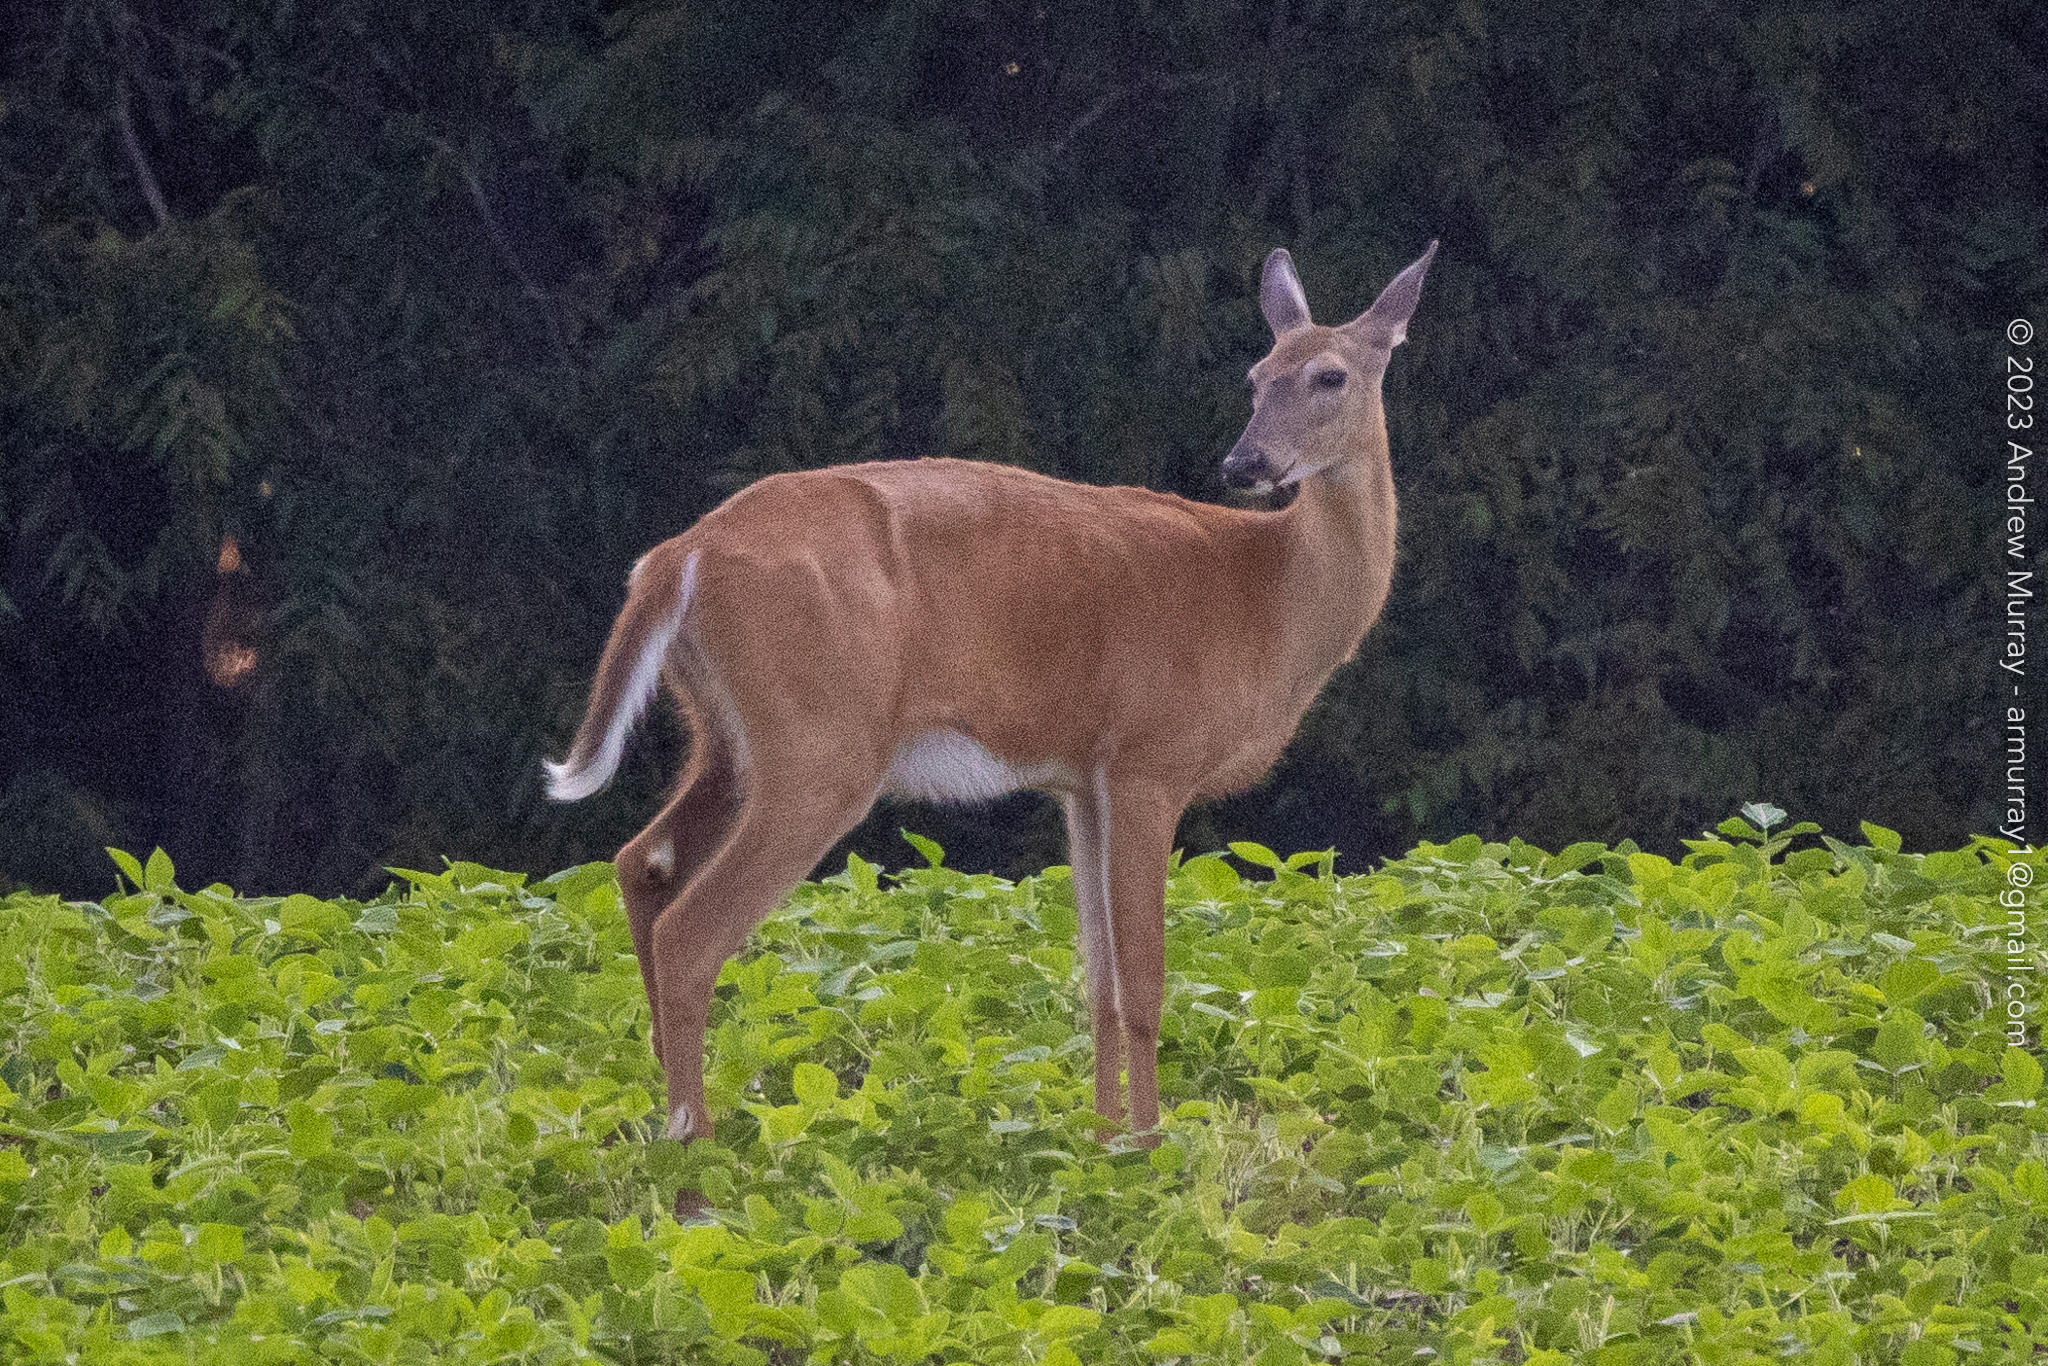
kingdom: Animalia
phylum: Chordata
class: Mammalia
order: Artiodactyla
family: Cervidae
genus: Odocoileus
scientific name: Odocoileus virginianus
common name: White-tailed deer
